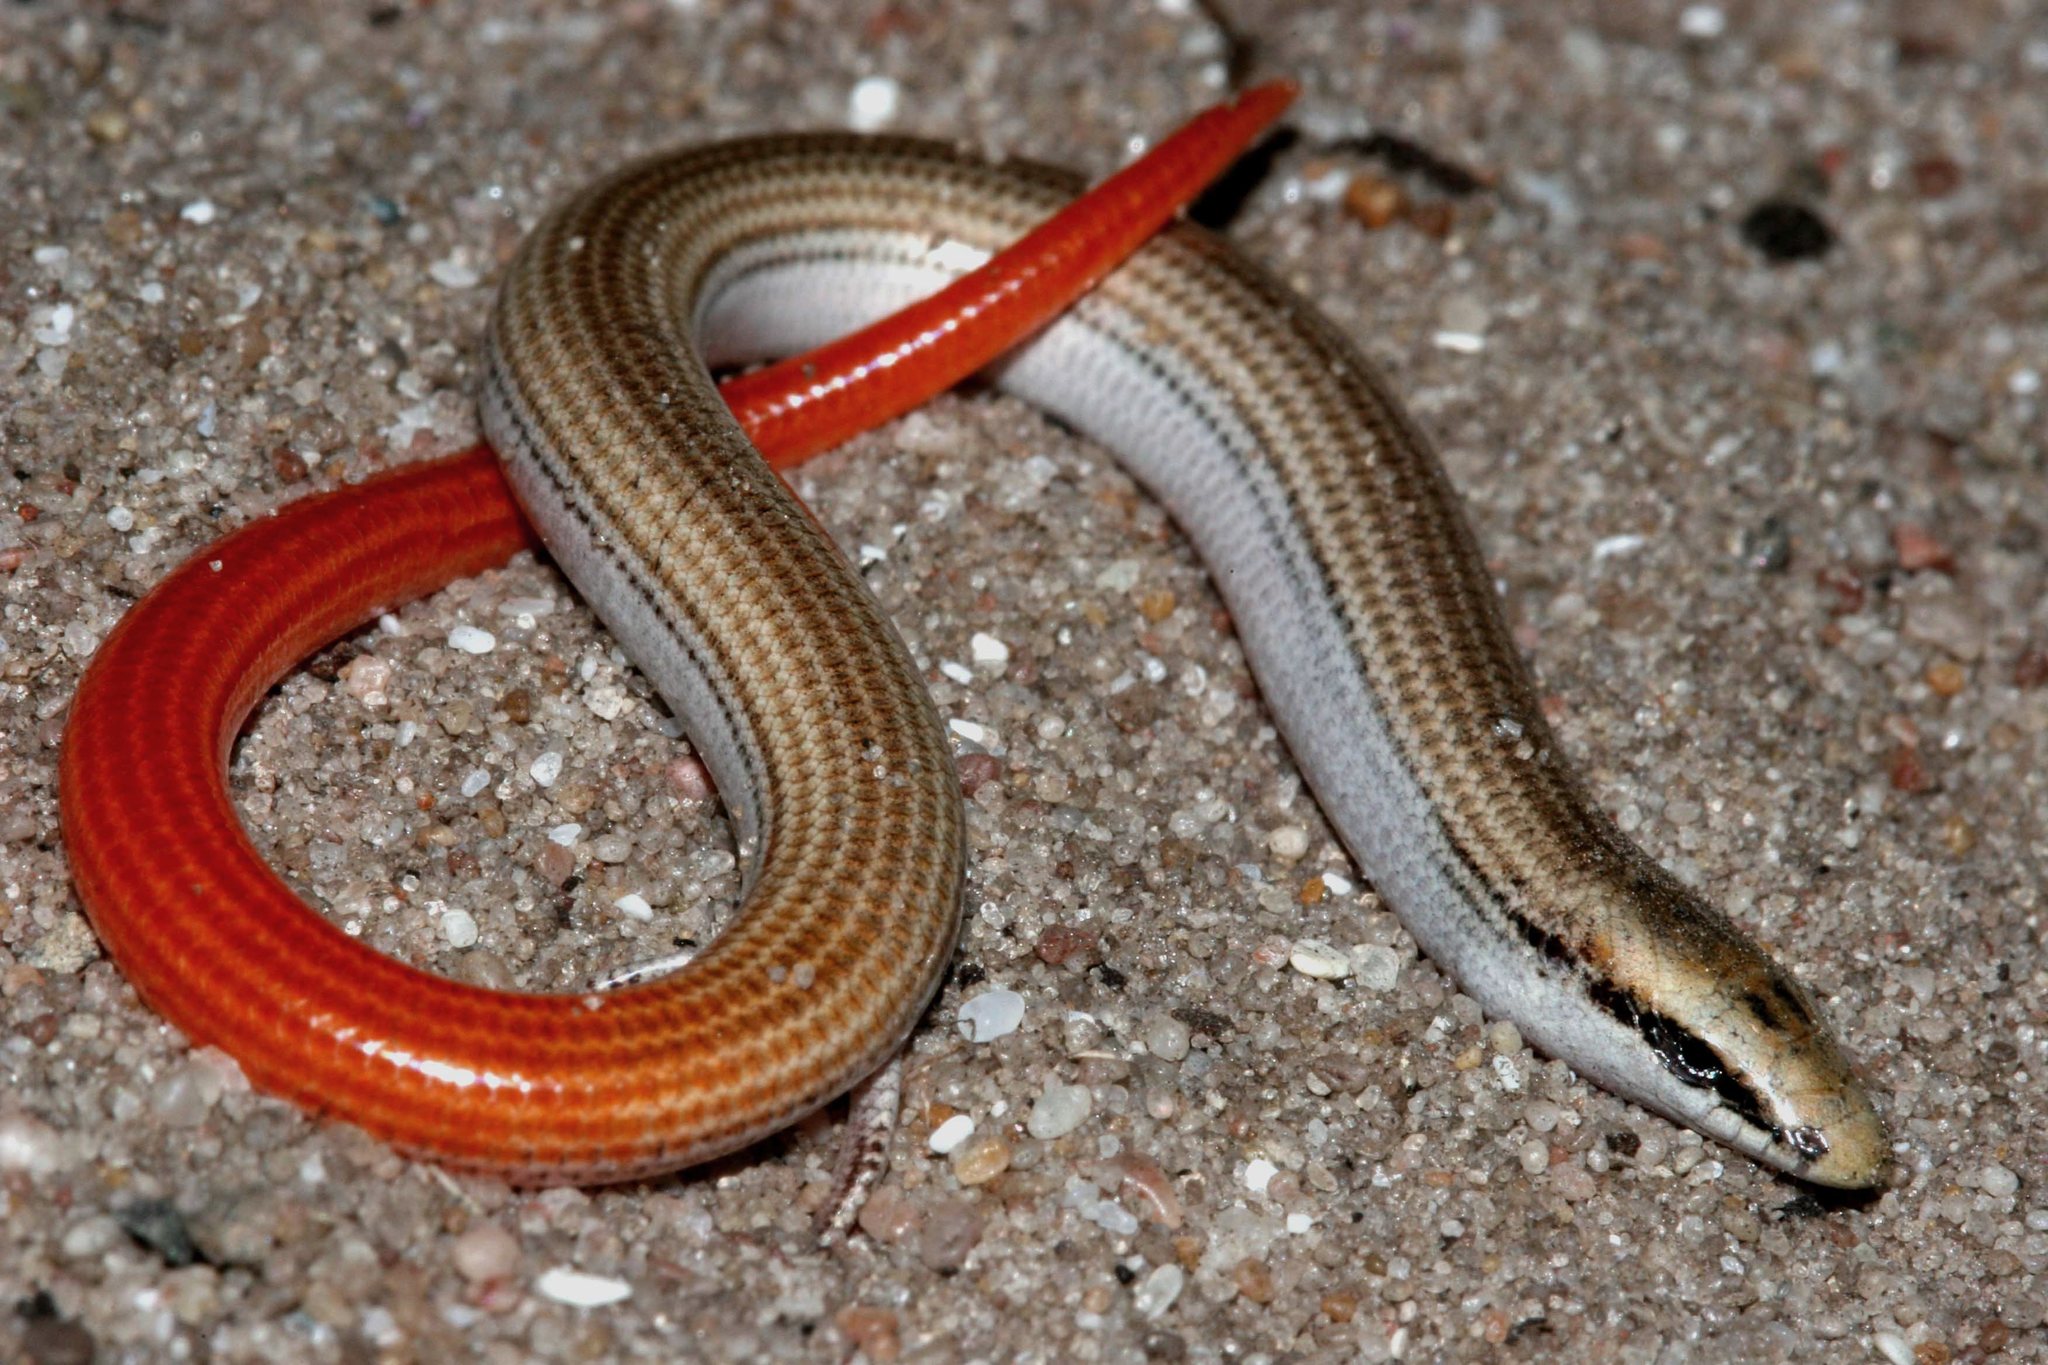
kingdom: Animalia
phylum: Chordata
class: Squamata
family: Scincidae
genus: Scelotes
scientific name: Scelotes montispectus
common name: Bloubergstrand dwarf burrowing skink
